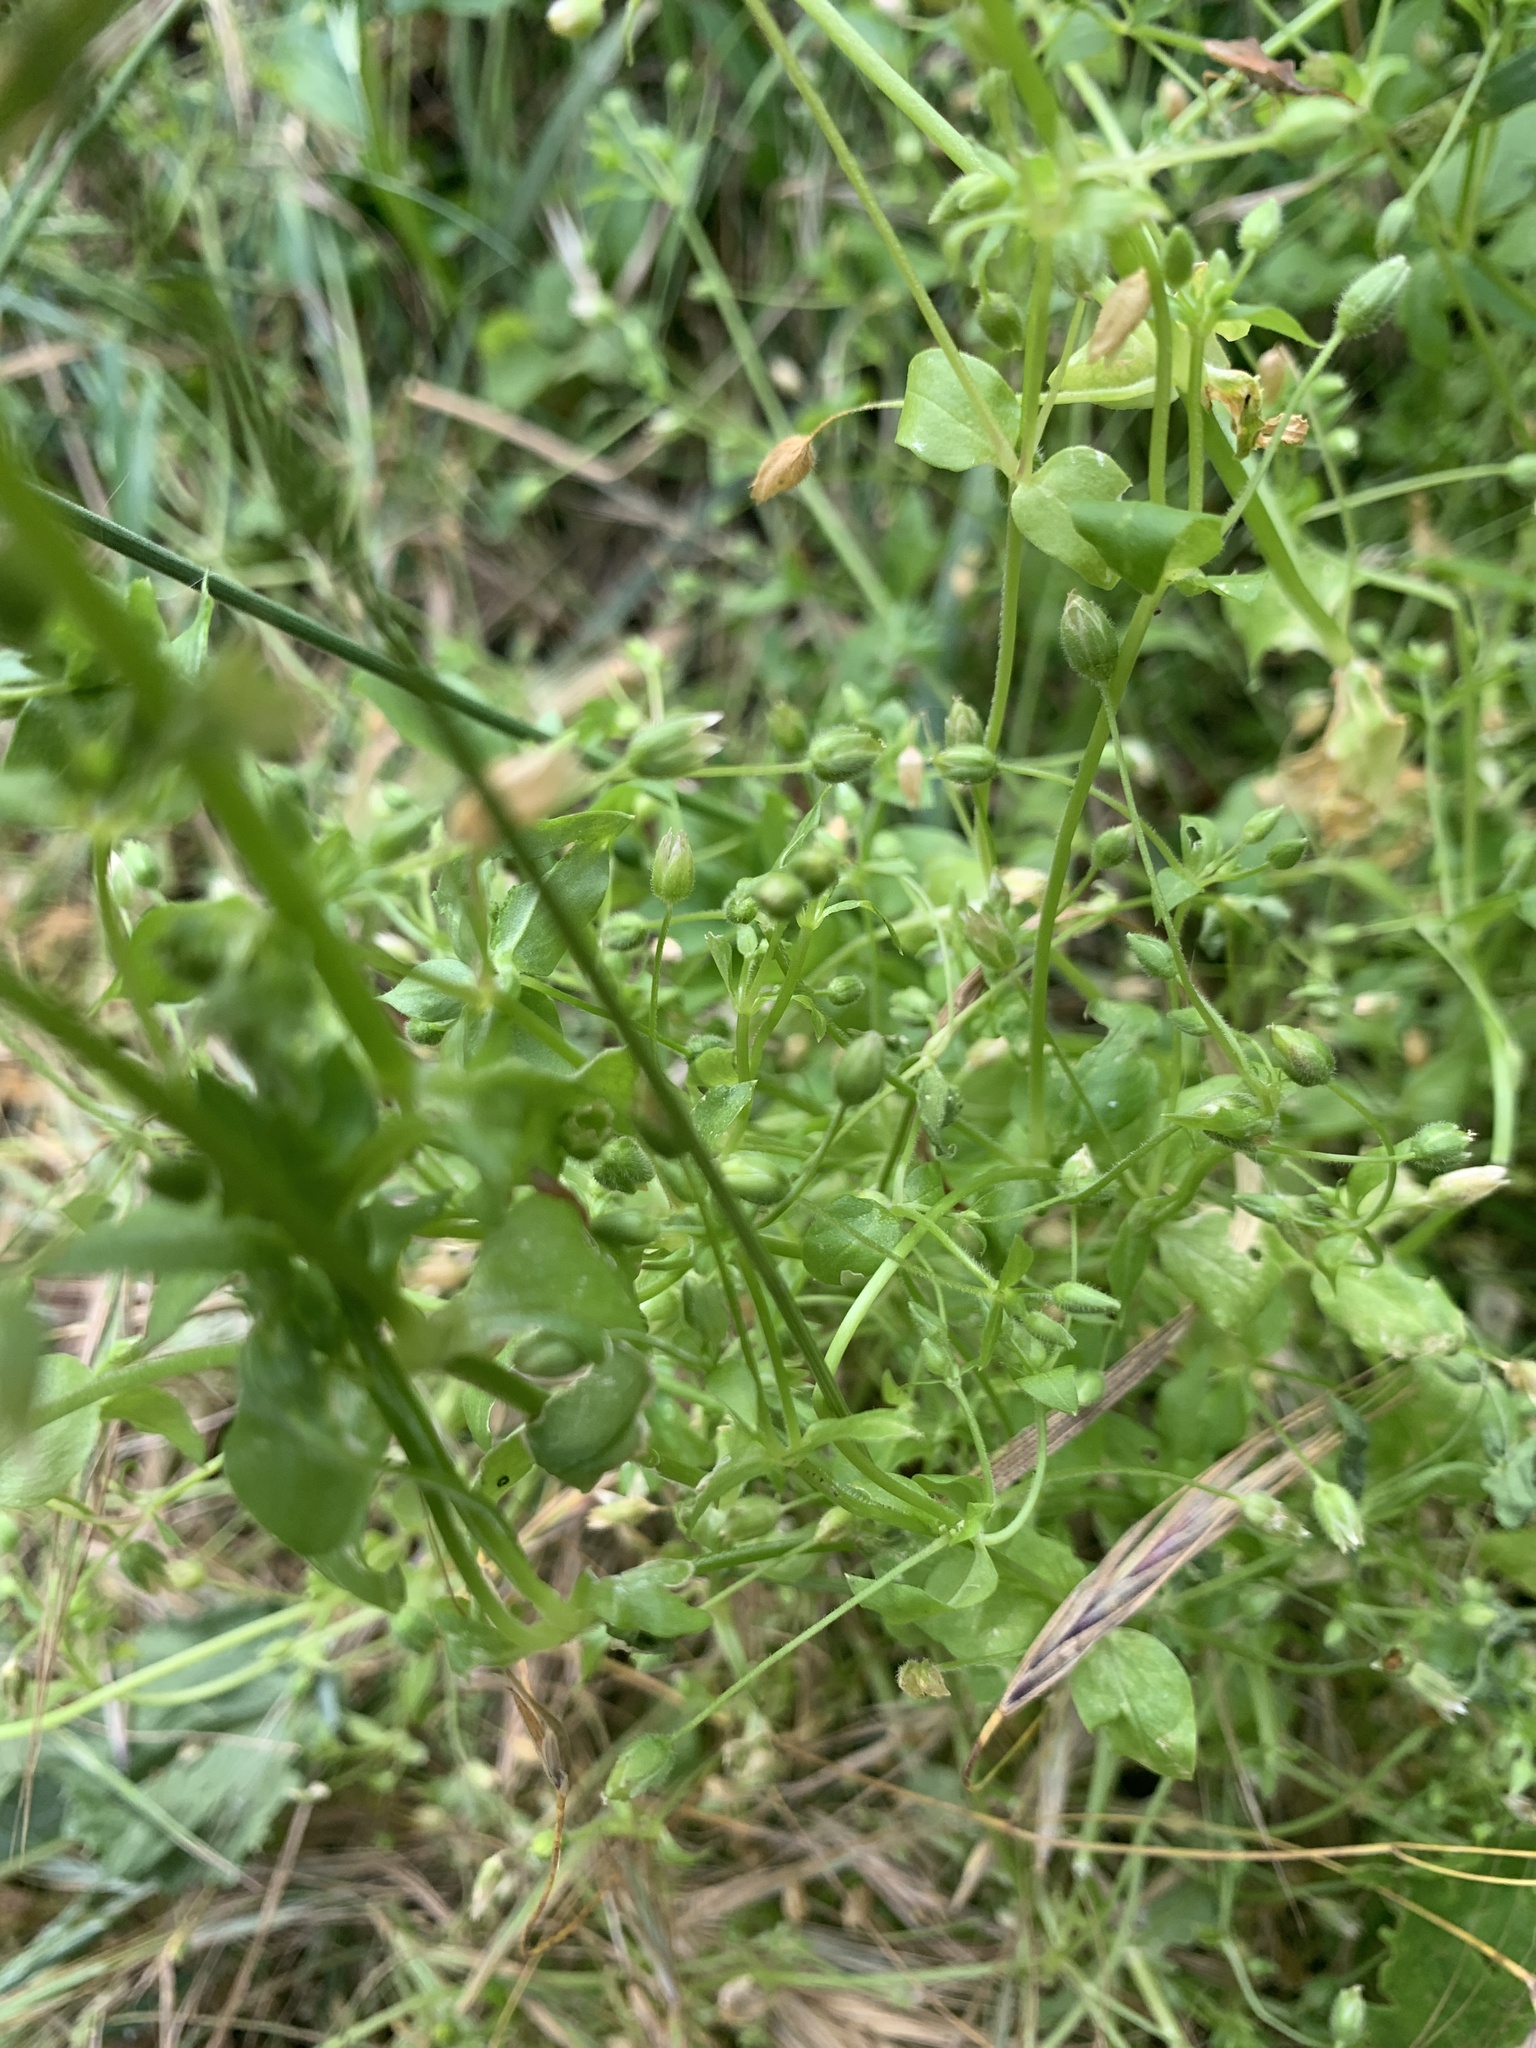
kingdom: Plantae
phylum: Tracheophyta
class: Magnoliopsida
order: Caryophyllales
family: Caryophyllaceae
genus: Stellaria
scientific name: Stellaria media
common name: Common chickweed
